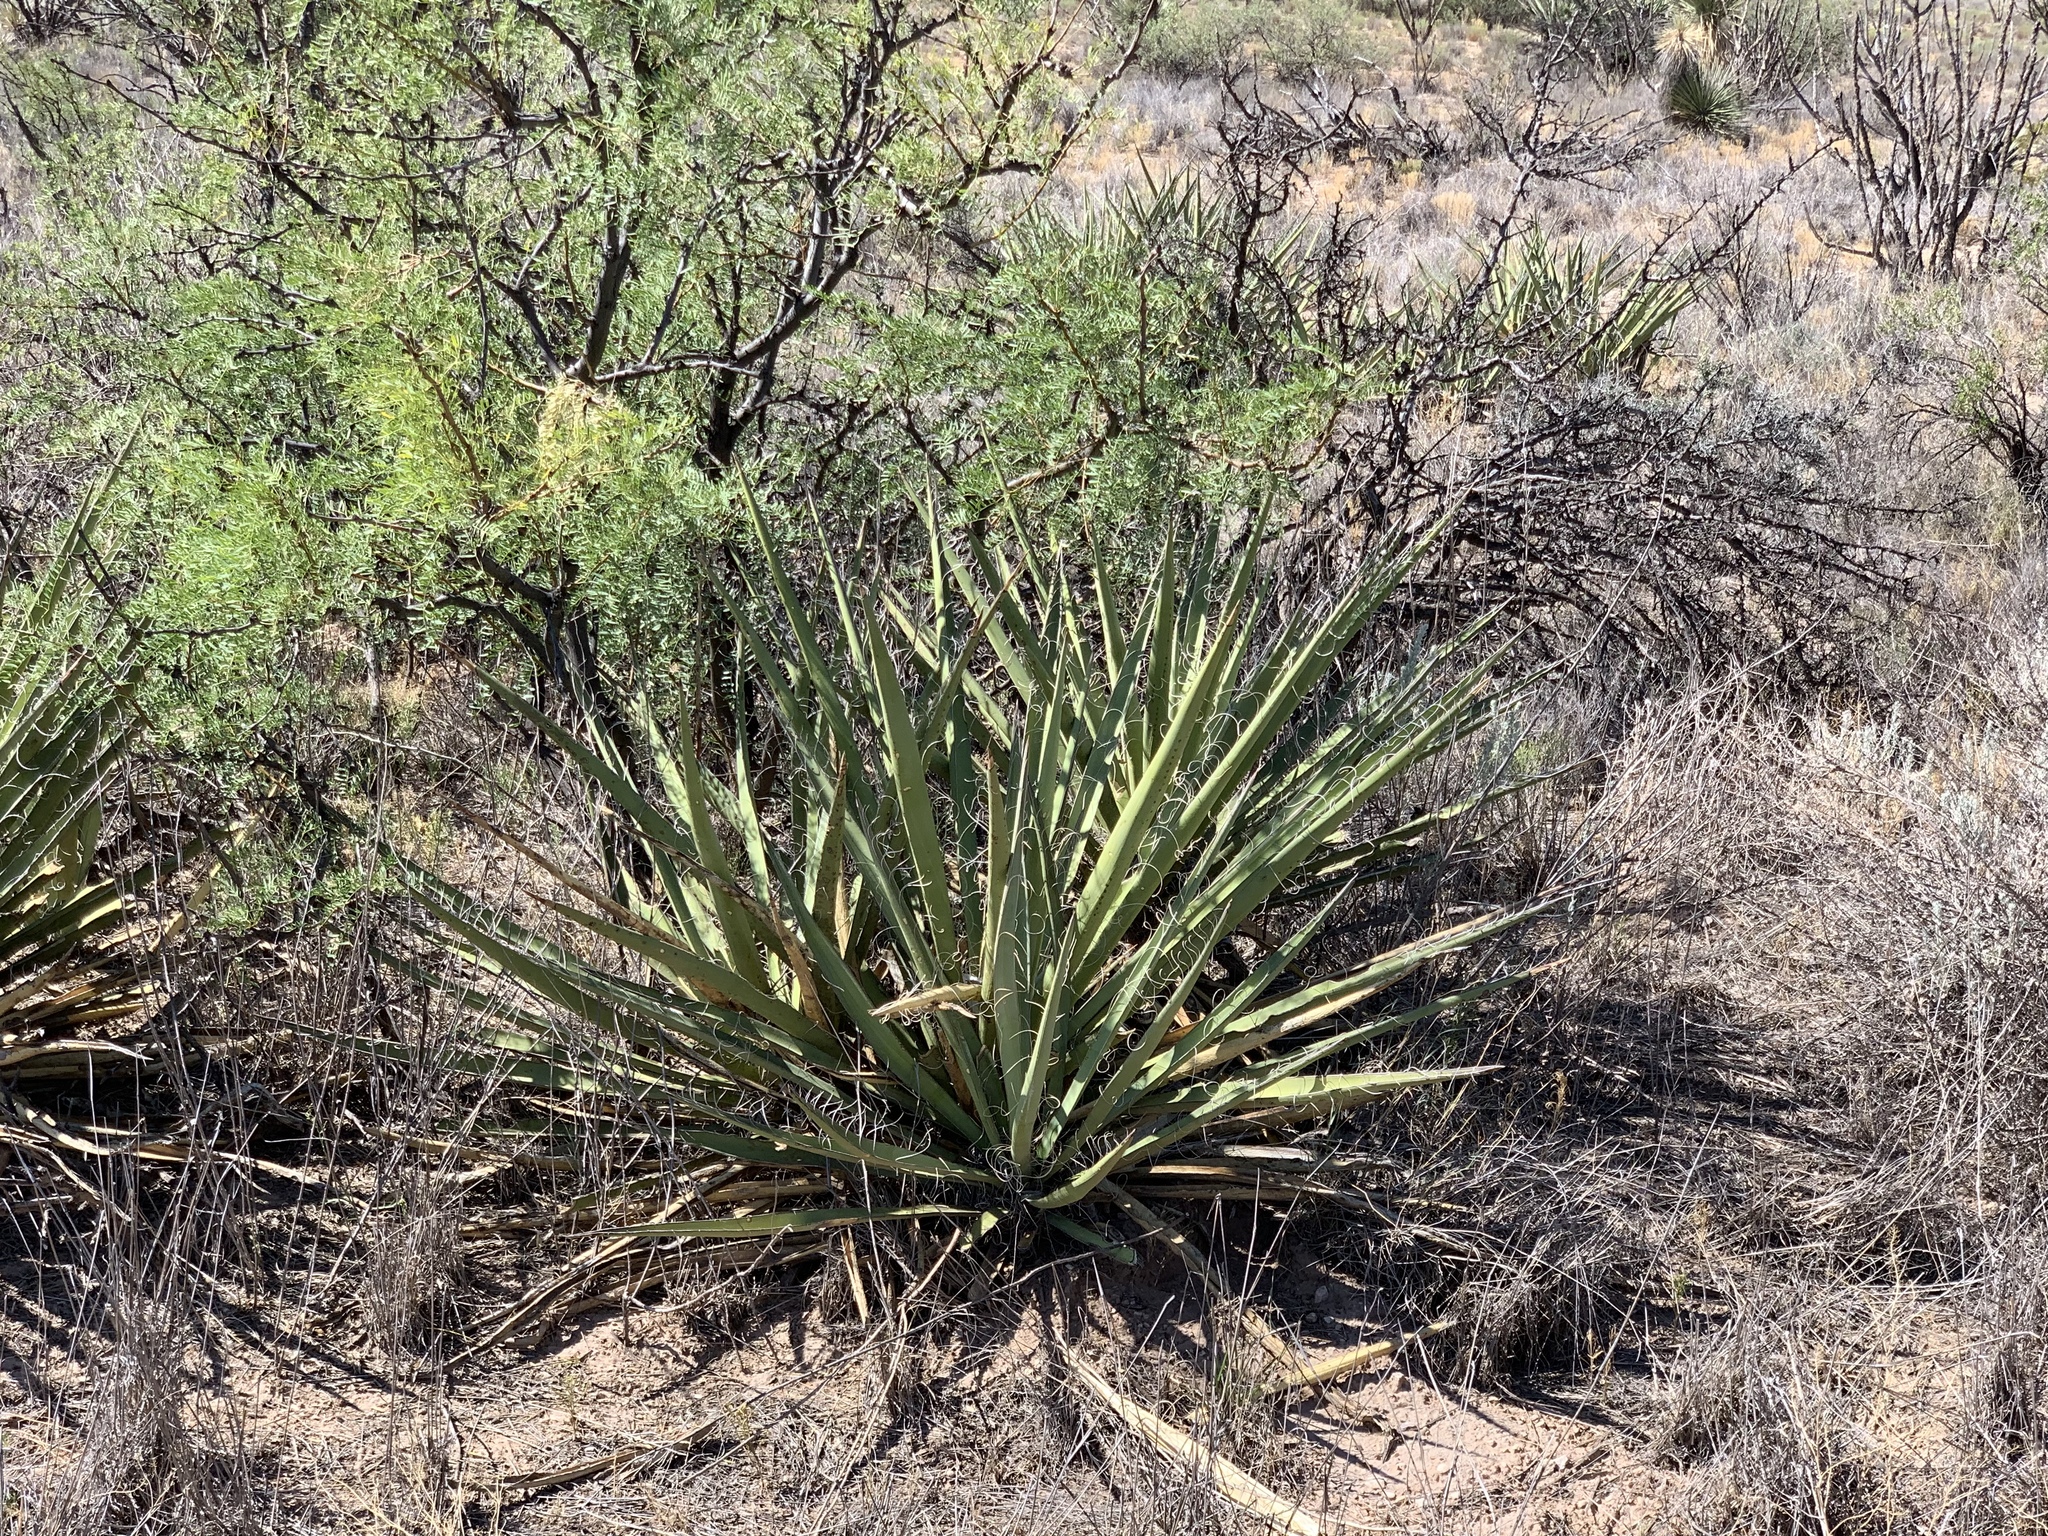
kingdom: Plantae
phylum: Tracheophyta
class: Liliopsida
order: Asparagales
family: Asparagaceae
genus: Yucca
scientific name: Yucca baccata
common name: Banana yucca
